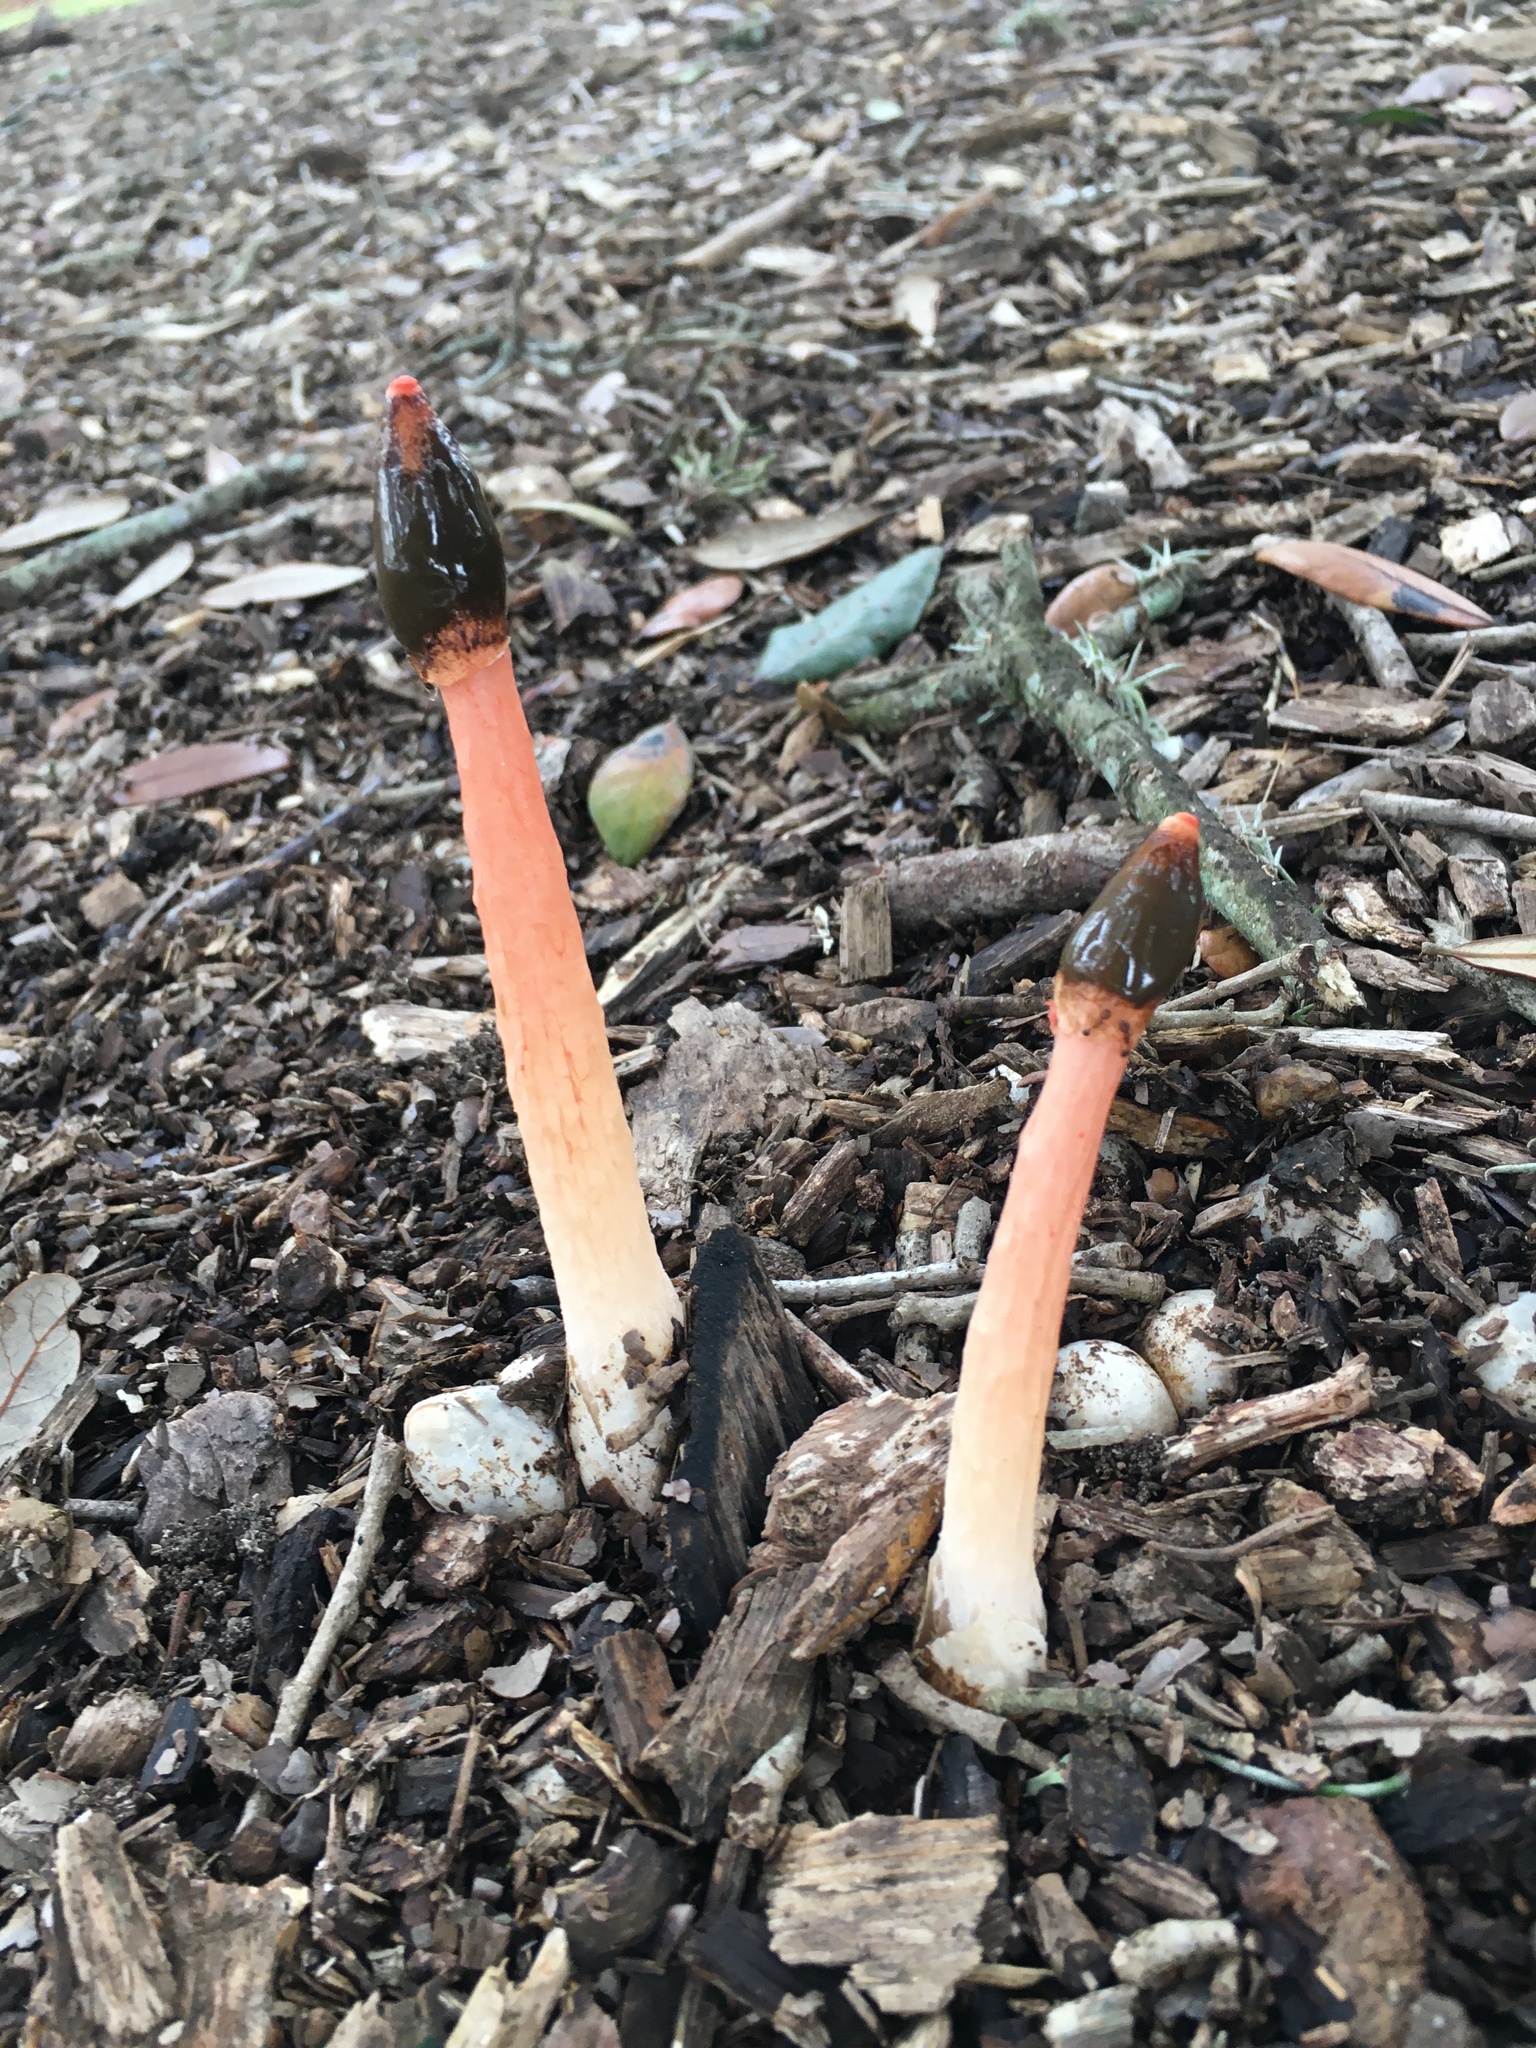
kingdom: Fungi
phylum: Basidiomycota
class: Agaricomycetes
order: Phallales
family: Phallaceae
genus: Phallus
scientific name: Phallus rugulosus
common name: Wrinkly stinkhorn
